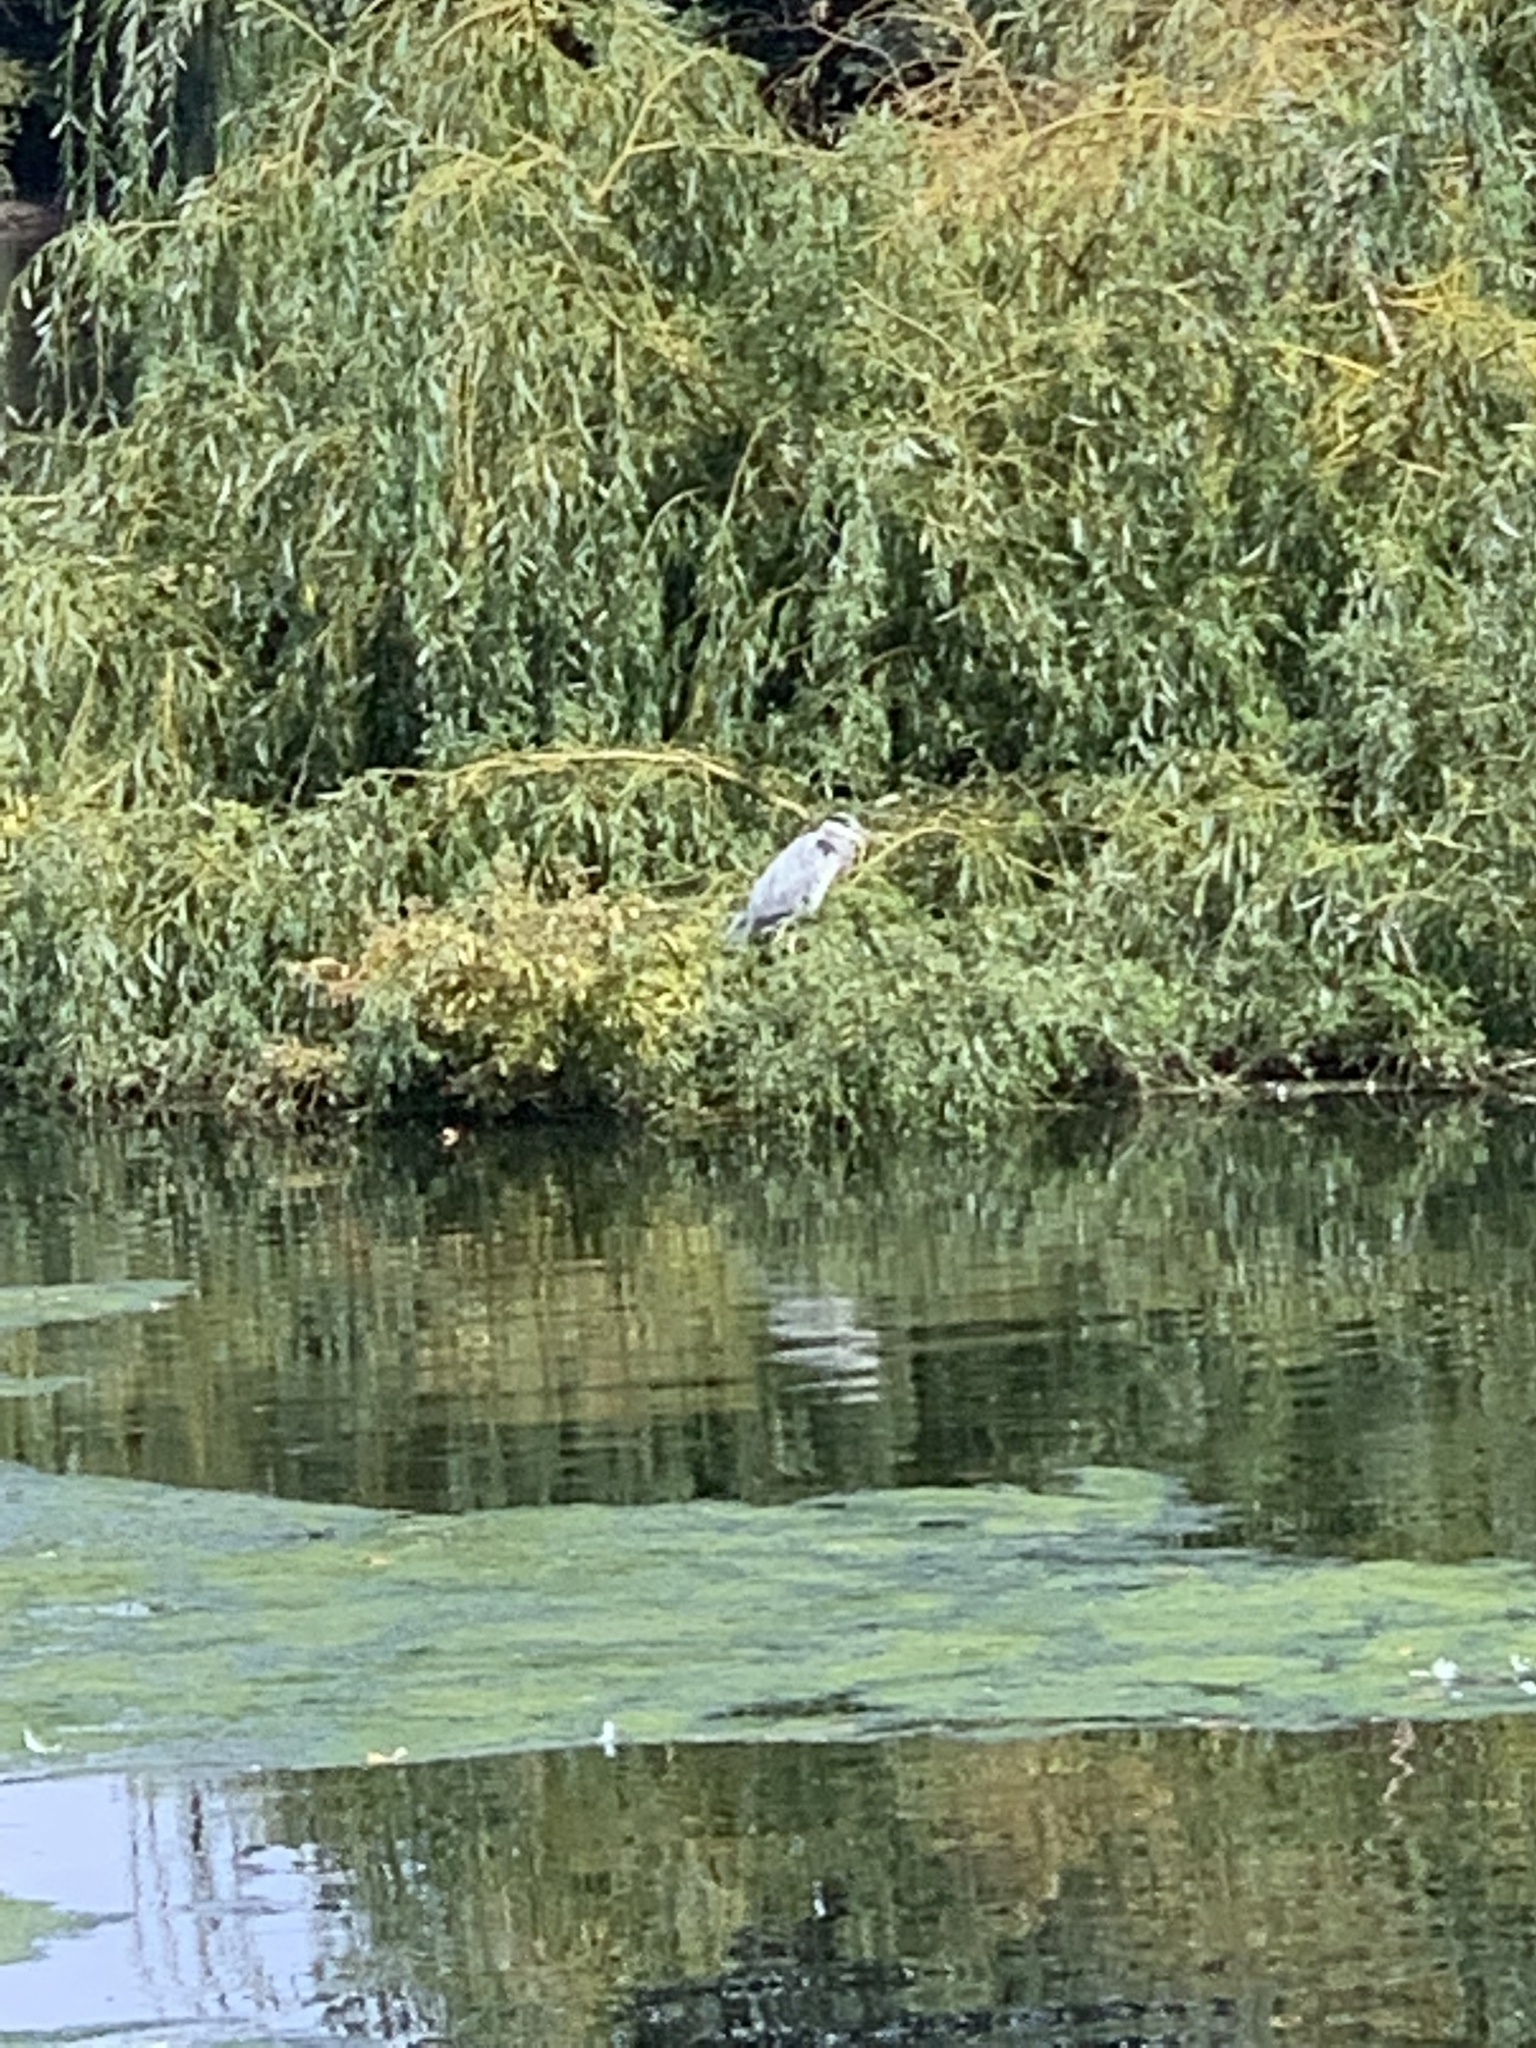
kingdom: Animalia
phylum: Chordata
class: Aves
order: Pelecaniformes
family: Ardeidae
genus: Ardea
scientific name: Ardea cinerea
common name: Grey heron
